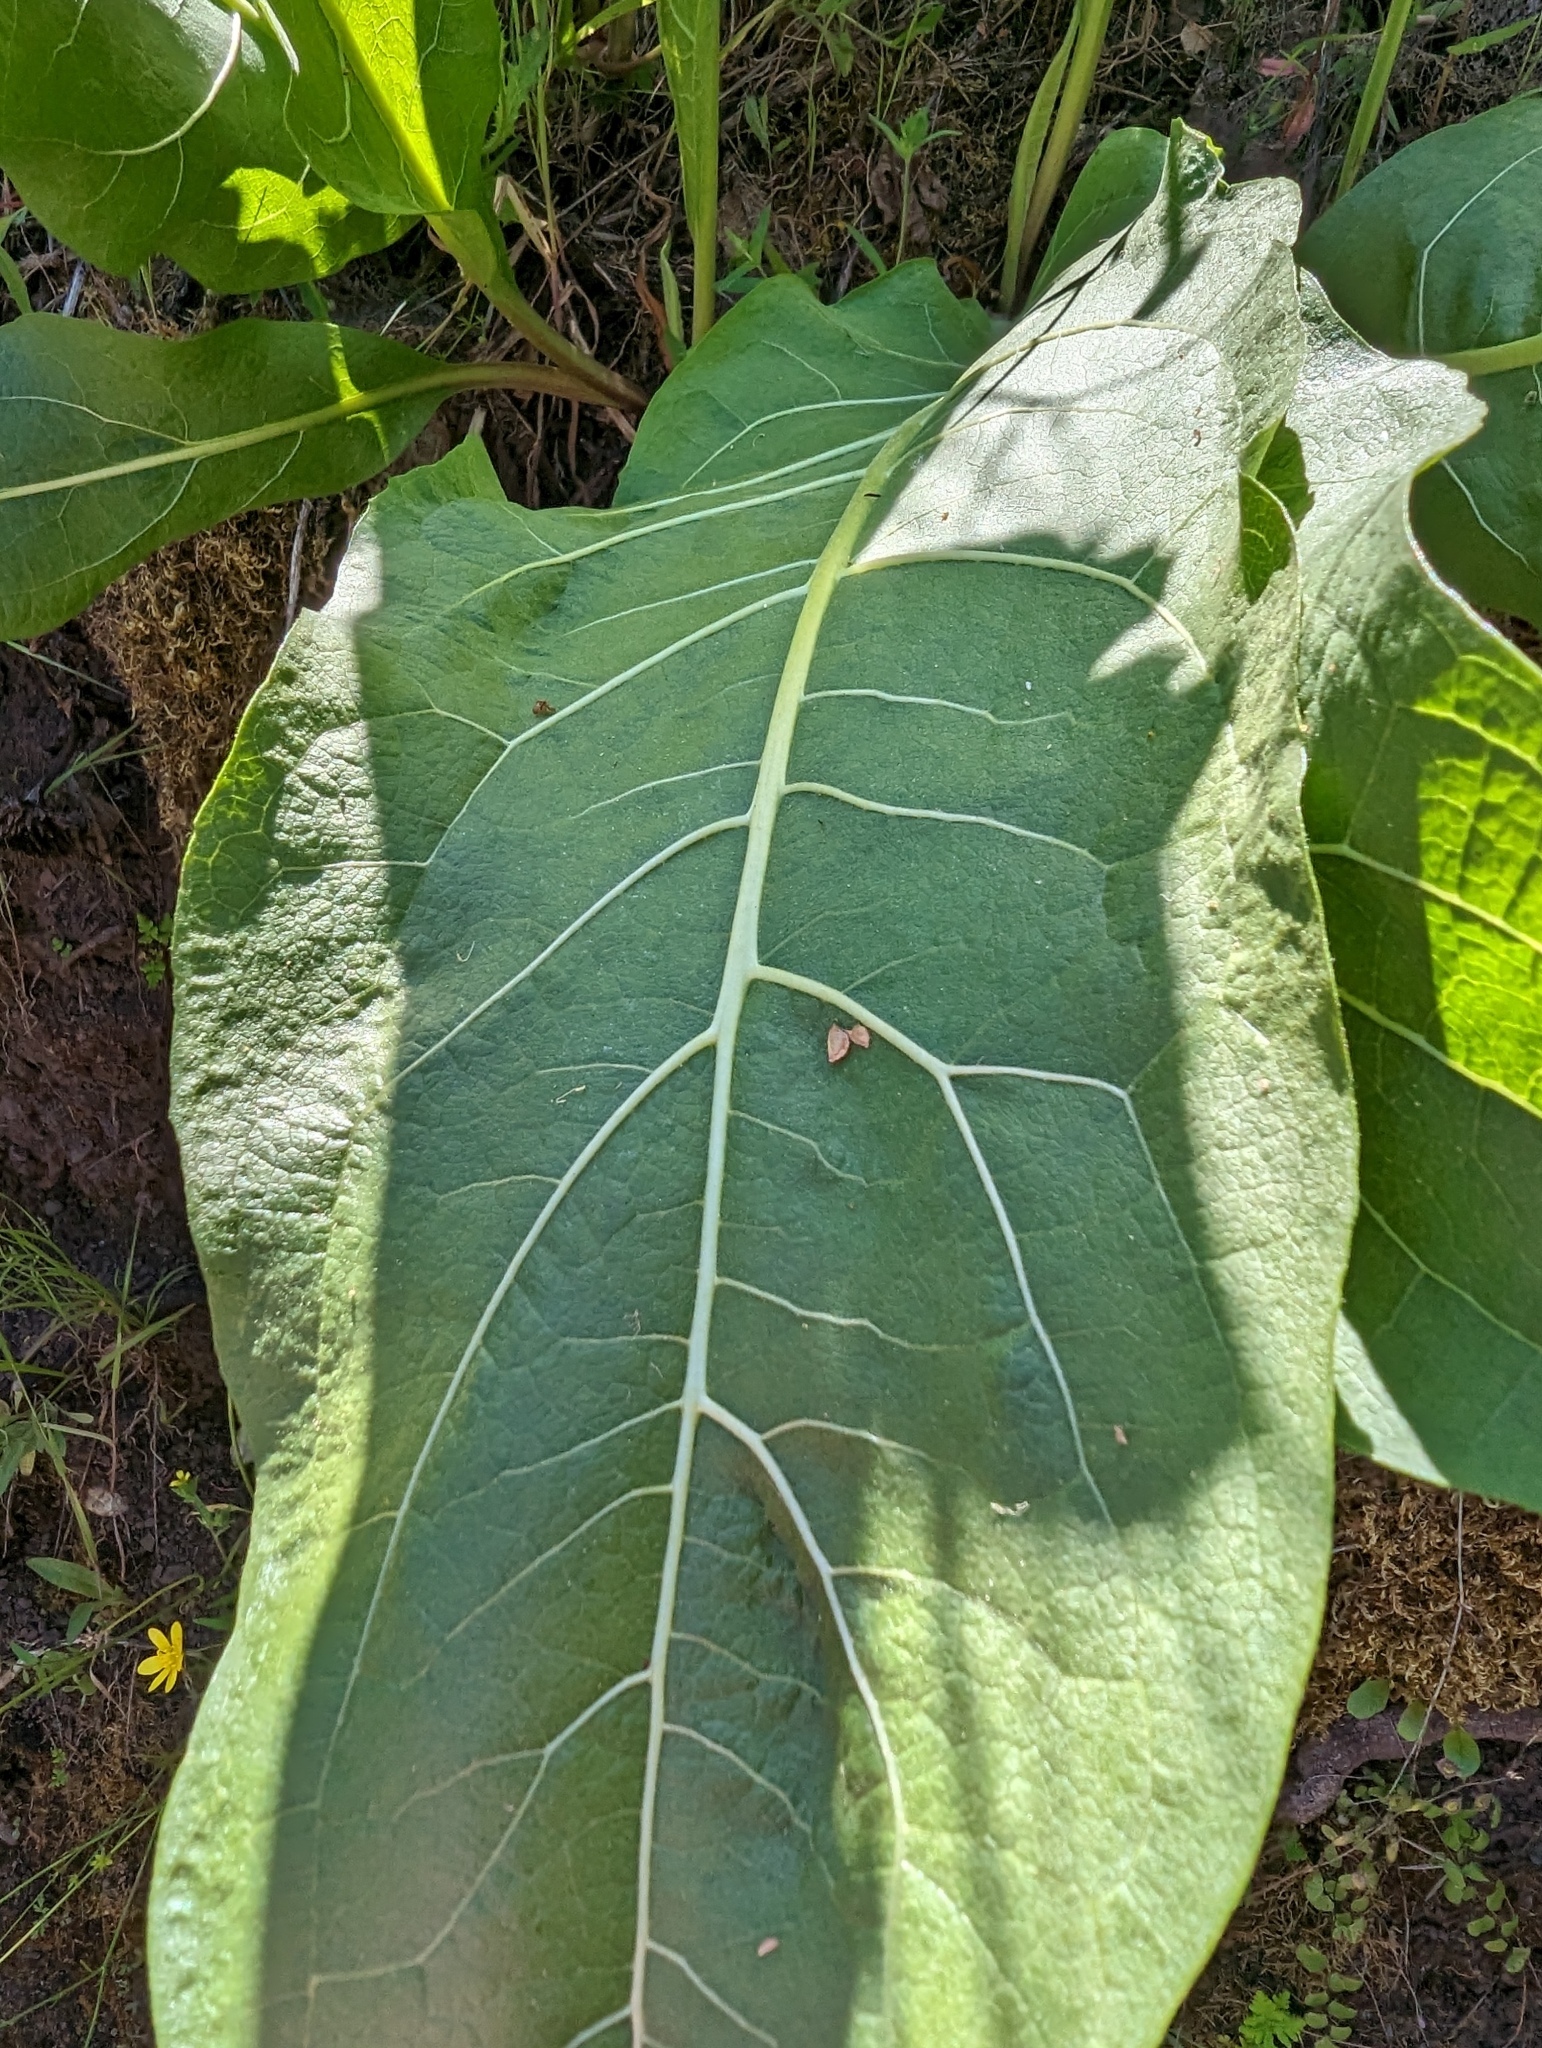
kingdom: Plantae
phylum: Tracheophyta
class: Magnoliopsida
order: Asterales
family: Asteraceae
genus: Wyethia
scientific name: Wyethia glabra
